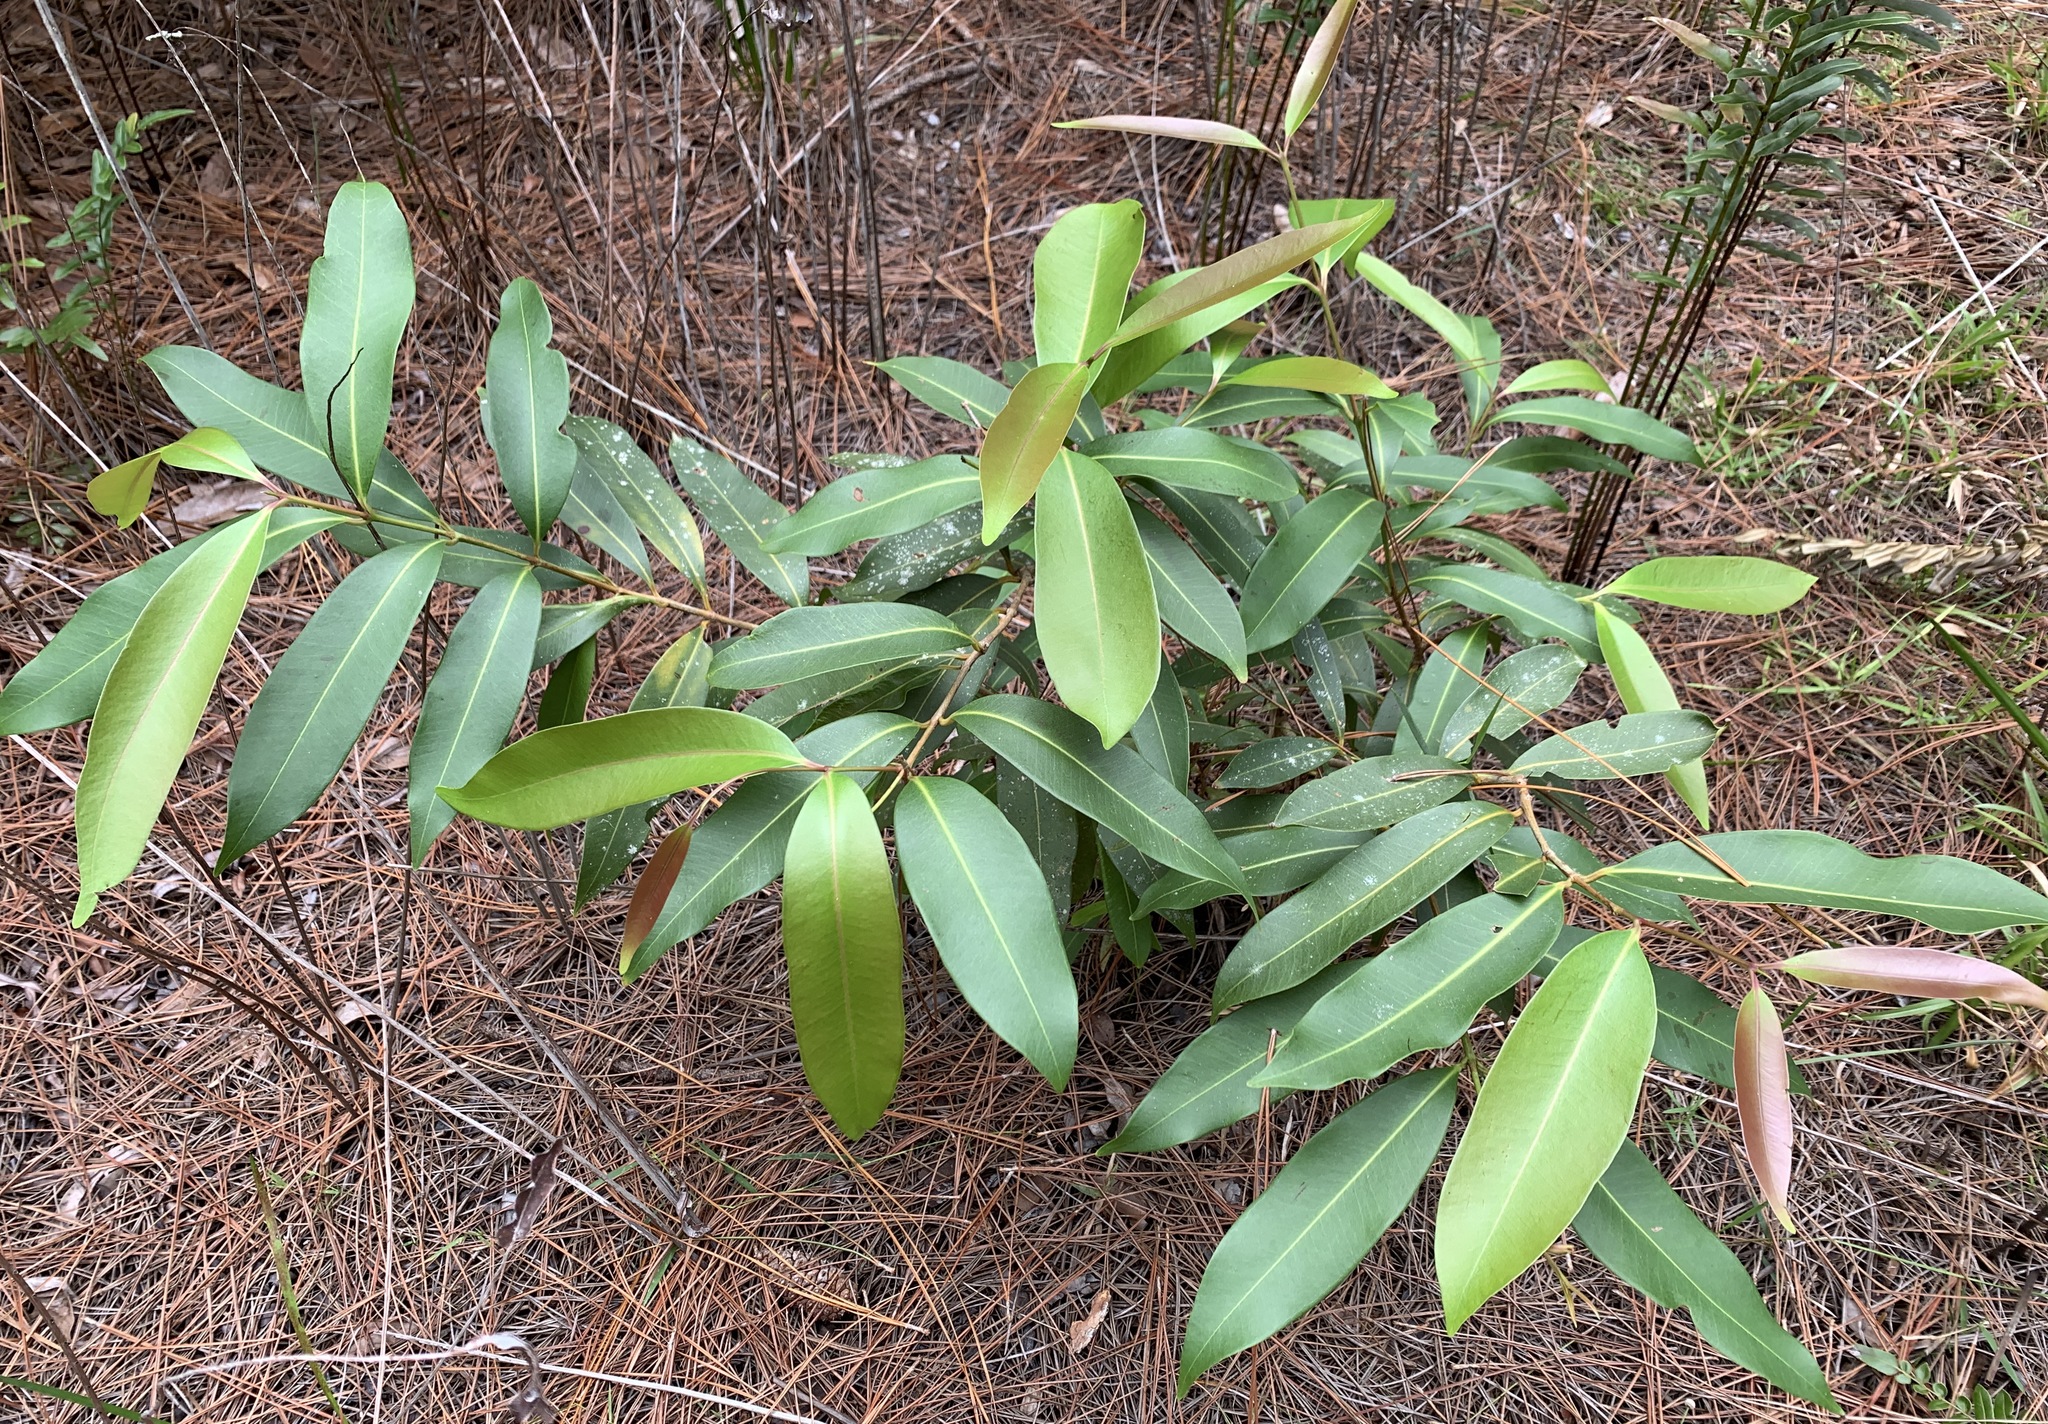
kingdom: Plantae
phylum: Tracheophyta
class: Magnoliopsida
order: Myrtales
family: Myrtaceae
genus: Syzygium
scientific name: Syzygium cumini
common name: Java plum
